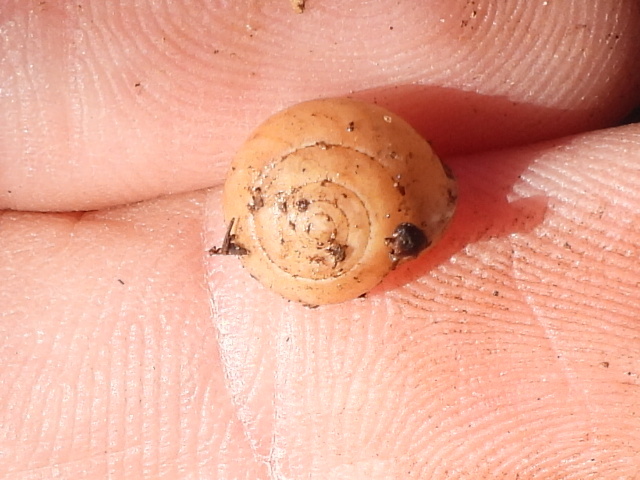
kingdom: Animalia
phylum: Mollusca
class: Gastropoda
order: Cycloneritida
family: Helicinidae
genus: Helicina
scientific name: Helicina orbiculata
